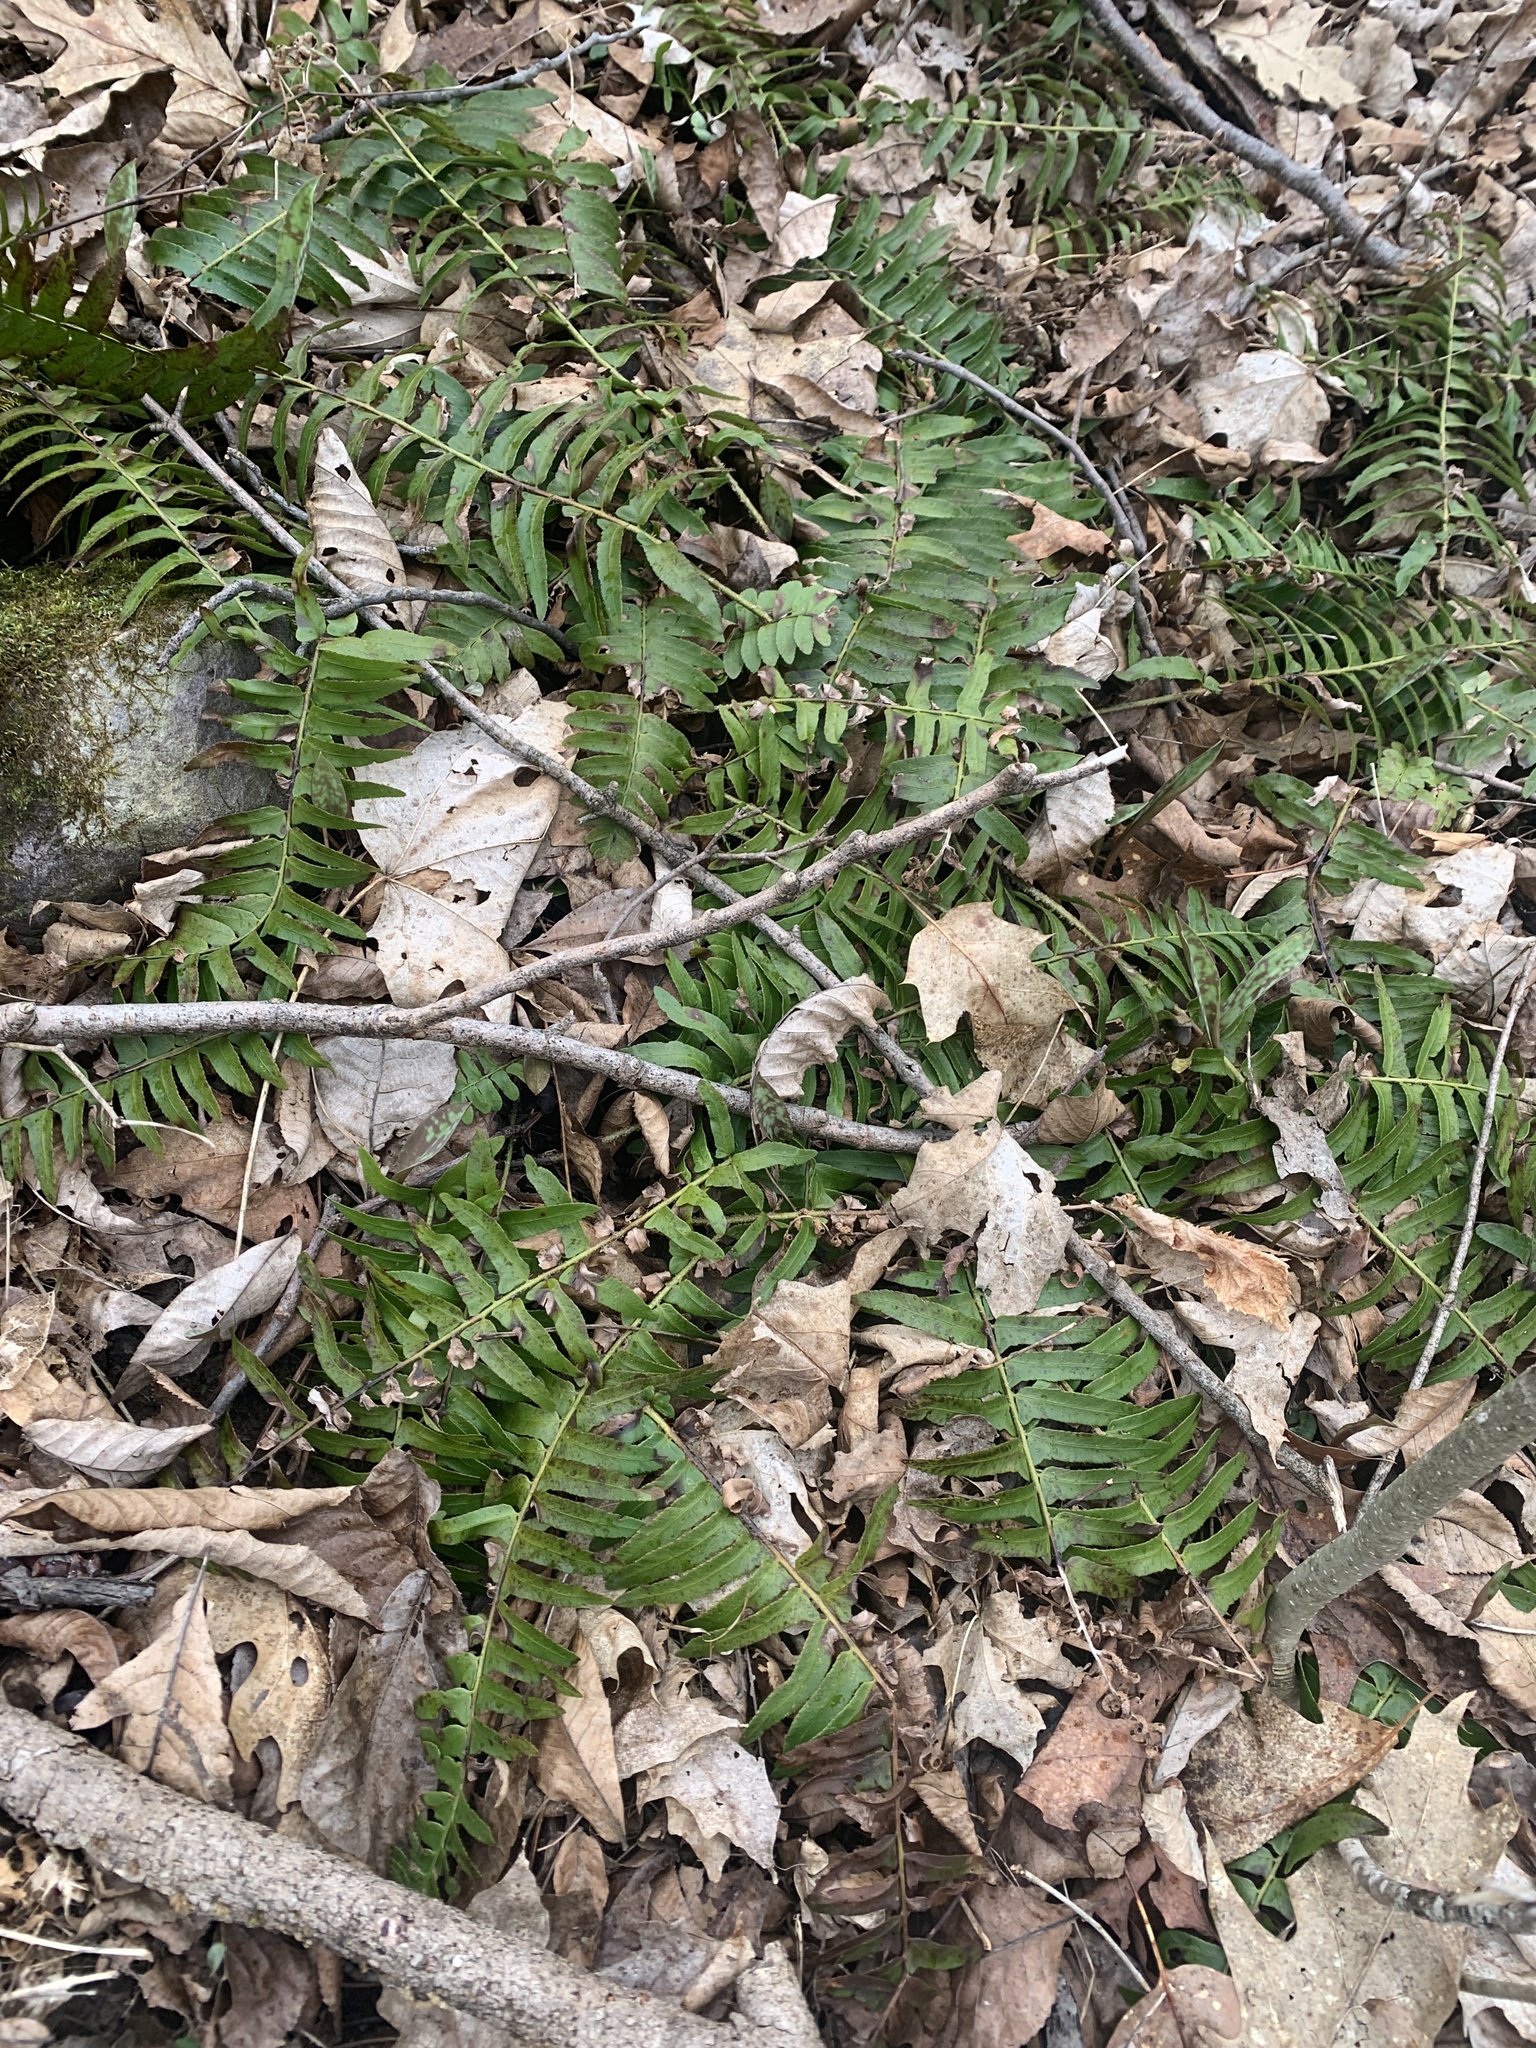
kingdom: Plantae
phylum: Tracheophyta
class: Polypodiopsida
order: Polypodiales
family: Dryopteridaceae
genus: Polystichum
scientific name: Polystichum acrostichoides
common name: Christmas fern
